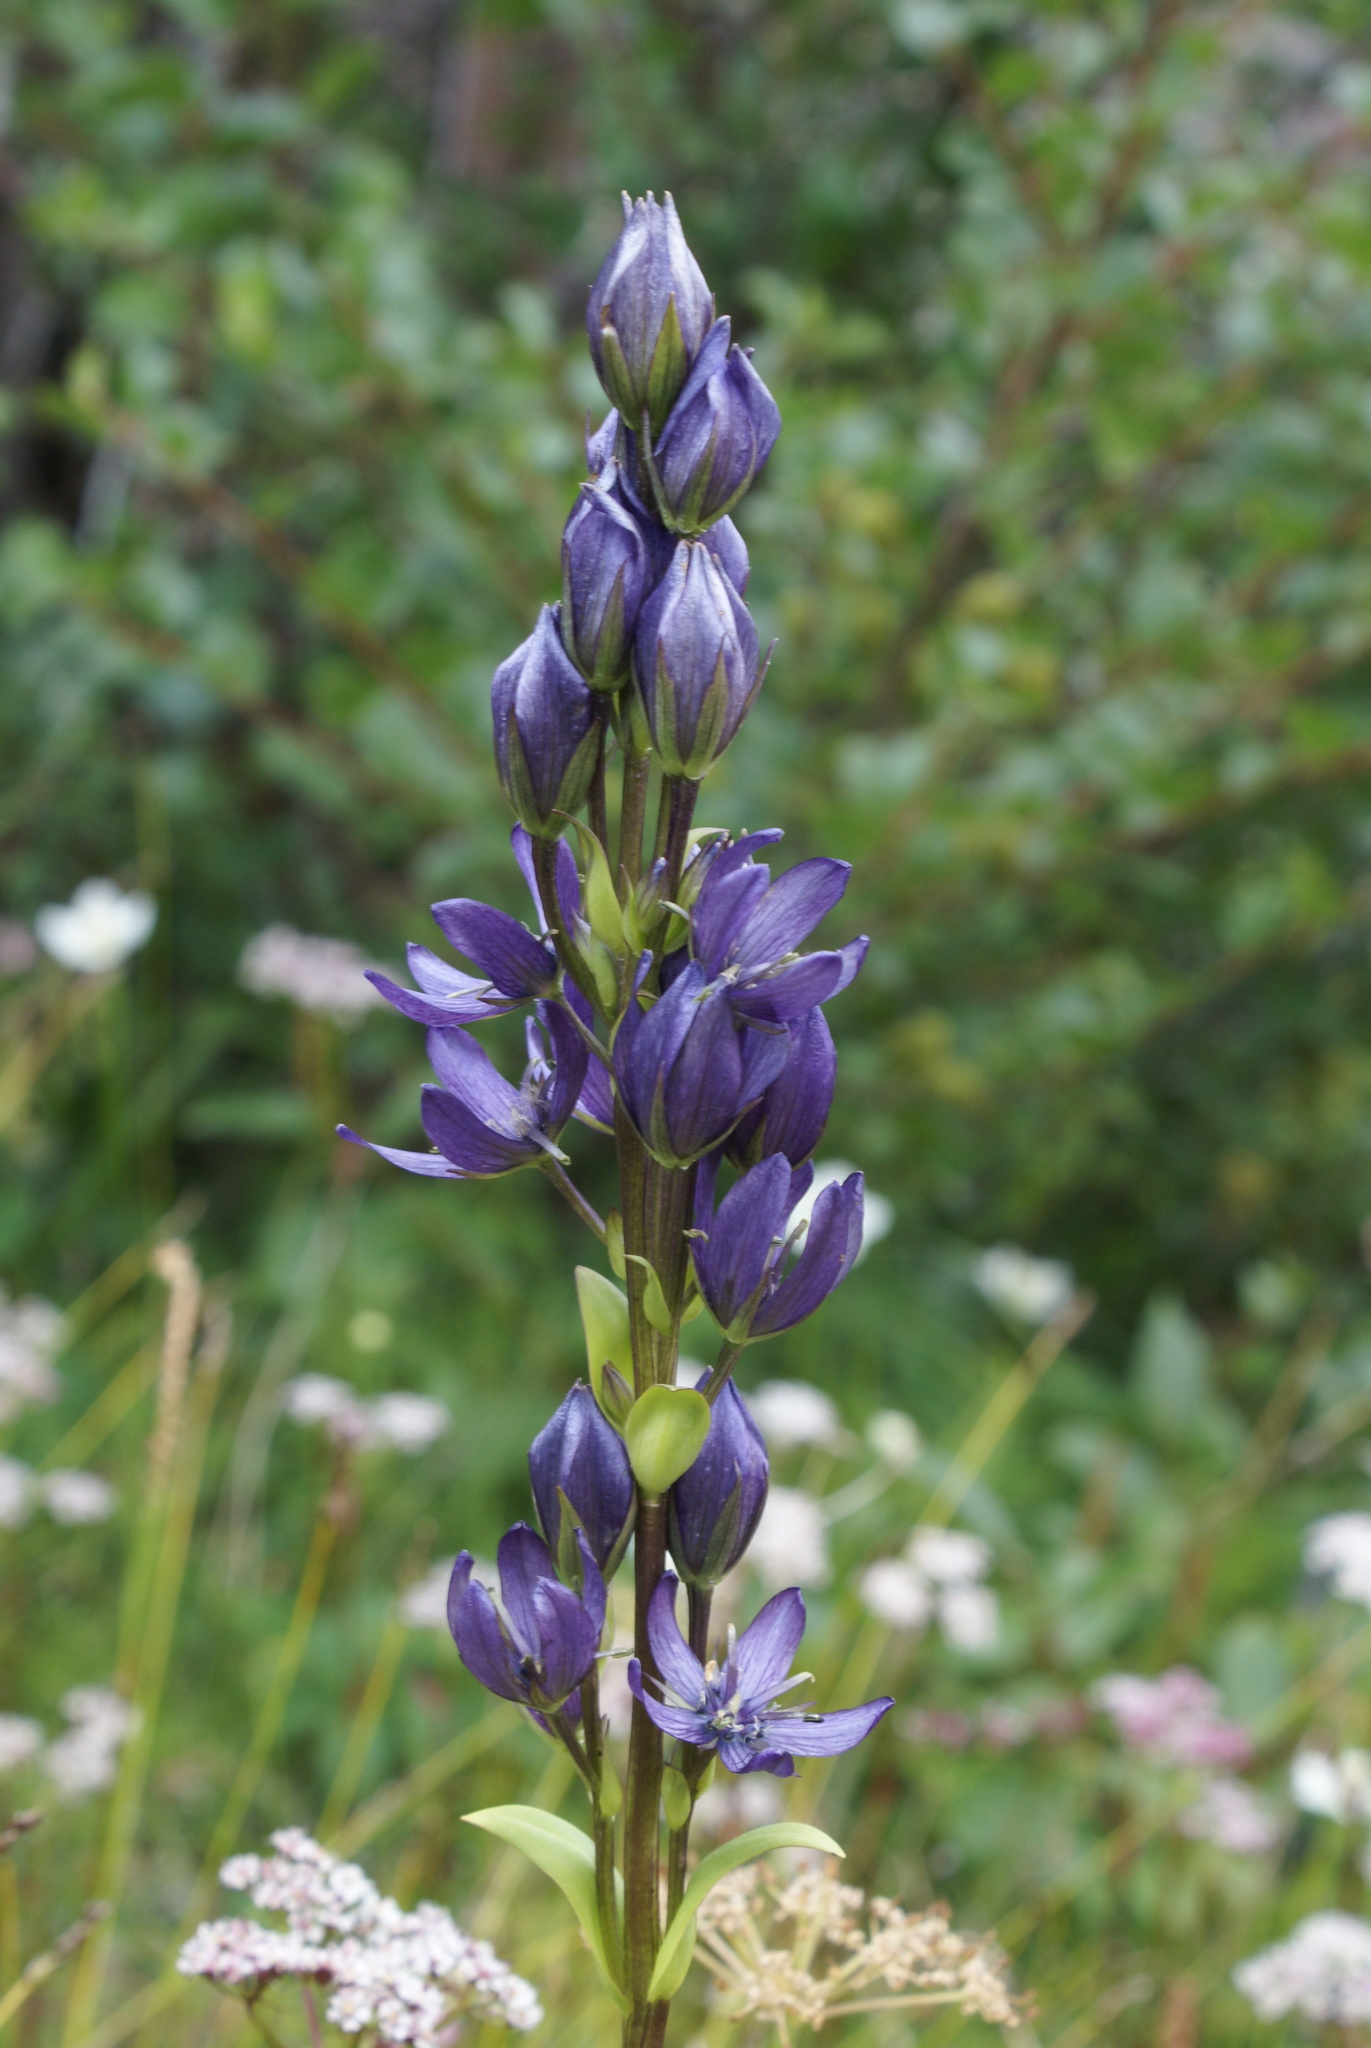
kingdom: Plantae
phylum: Tracheophyta
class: Magnoliopsida
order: Gentianales
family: Gentianaceae
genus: Swertia
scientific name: Swertia obtusa
